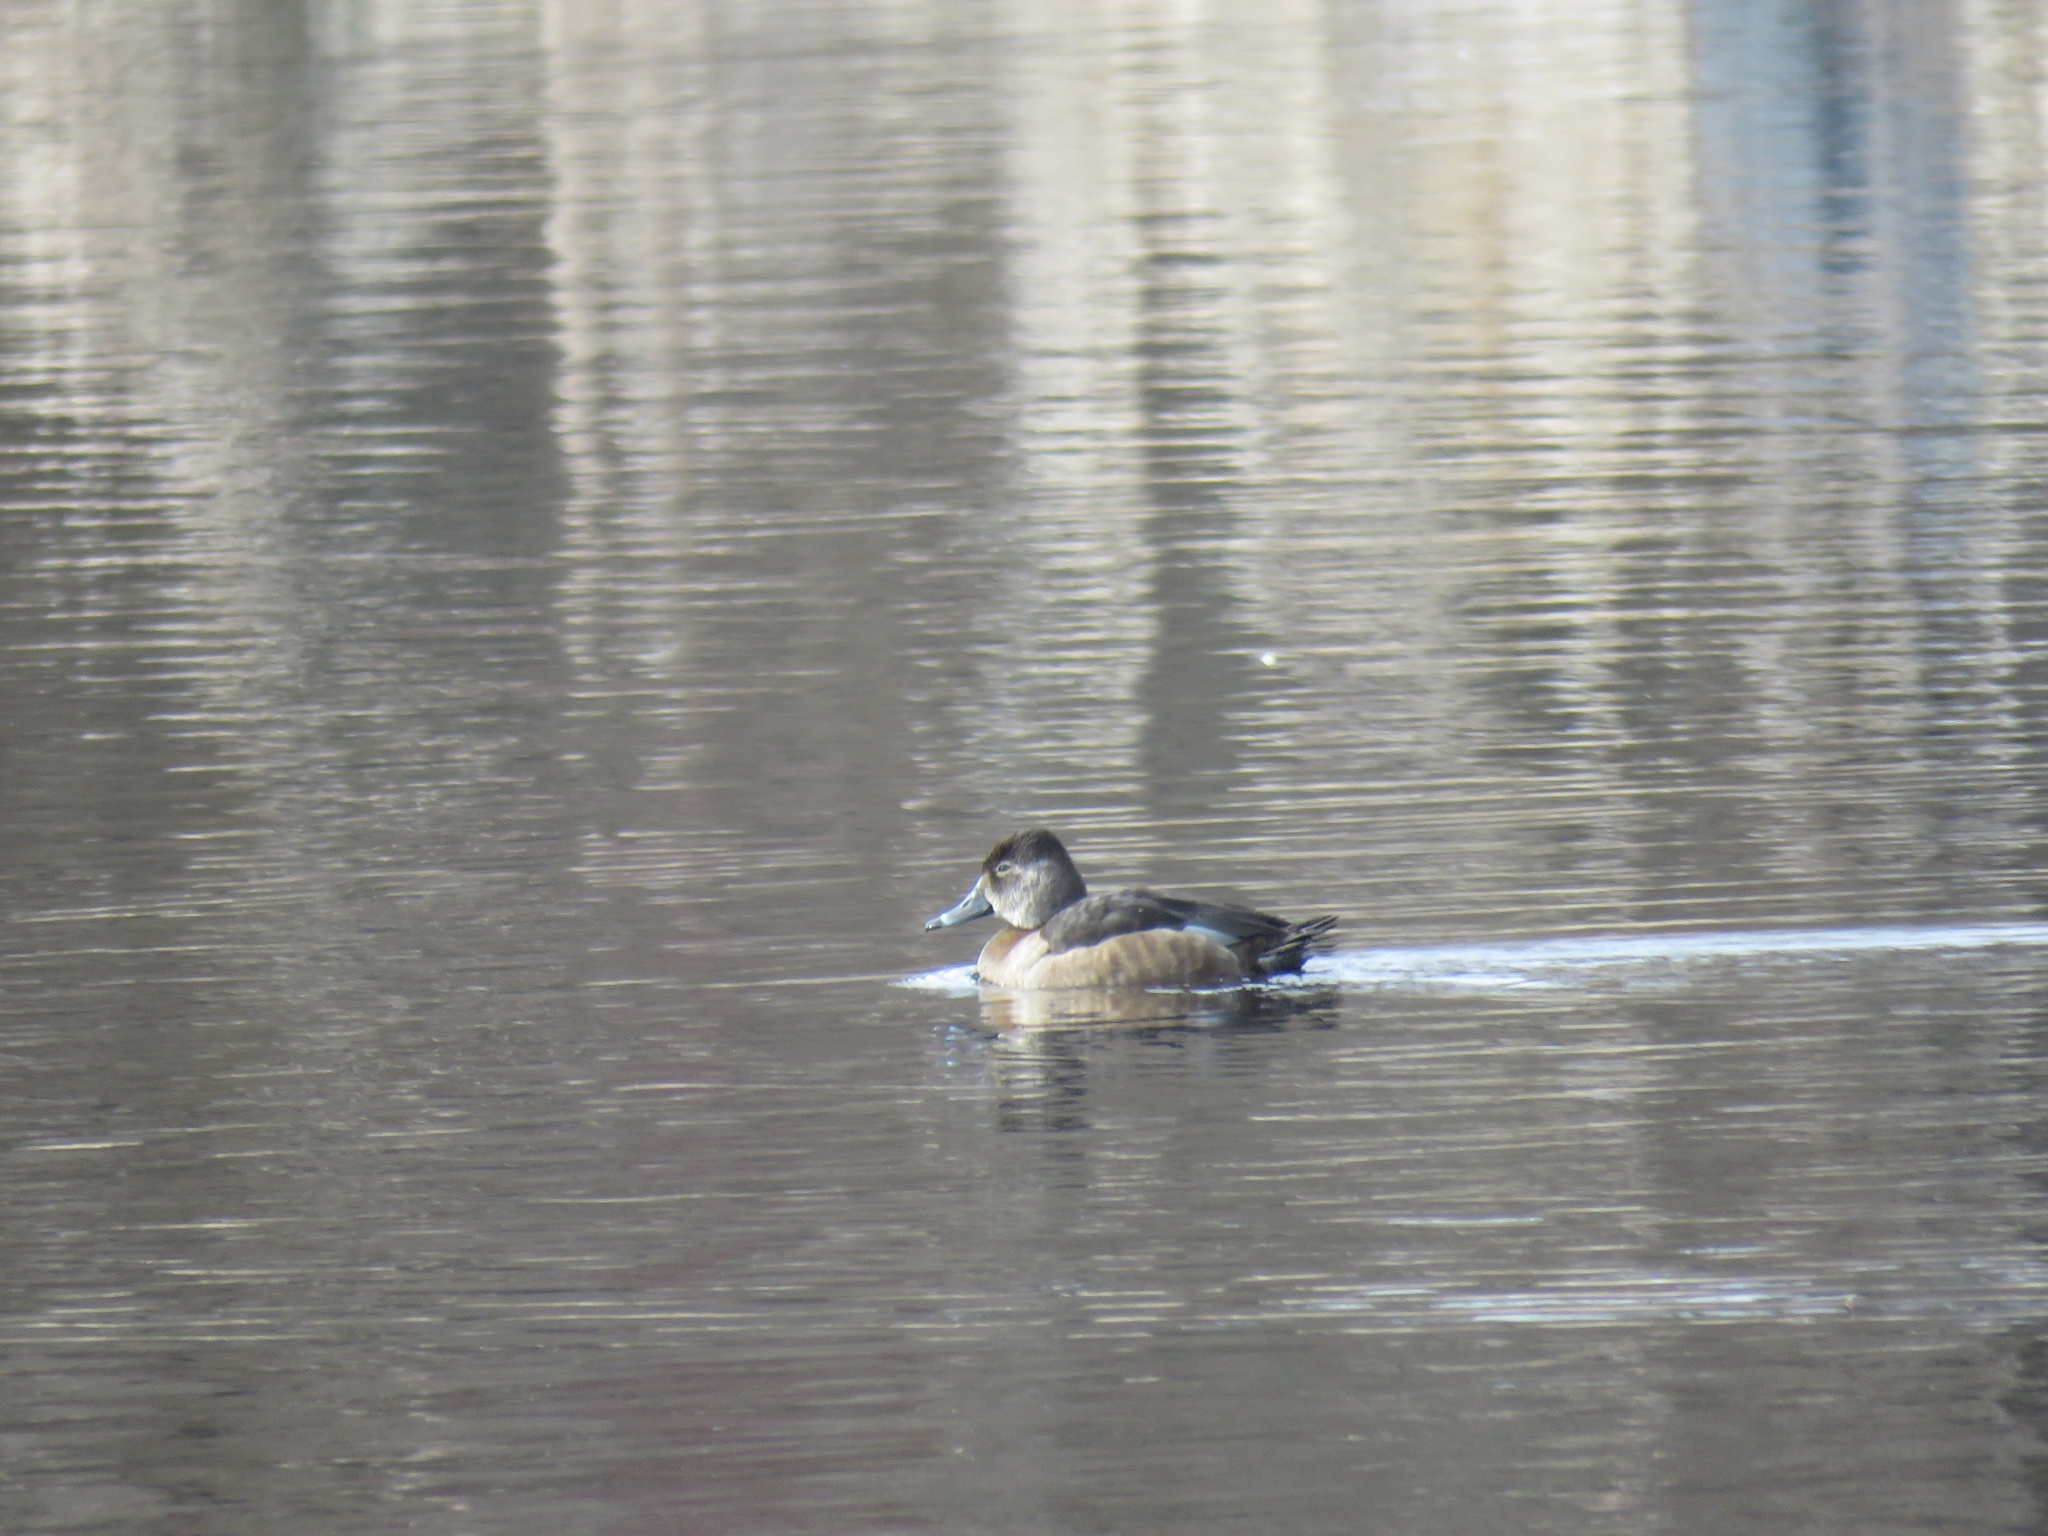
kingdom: Animalia
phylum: Chordata
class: Aves
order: Anseriformes
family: Anatidae
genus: Aythya
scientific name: Aythya collaris
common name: Ring-necked duck
